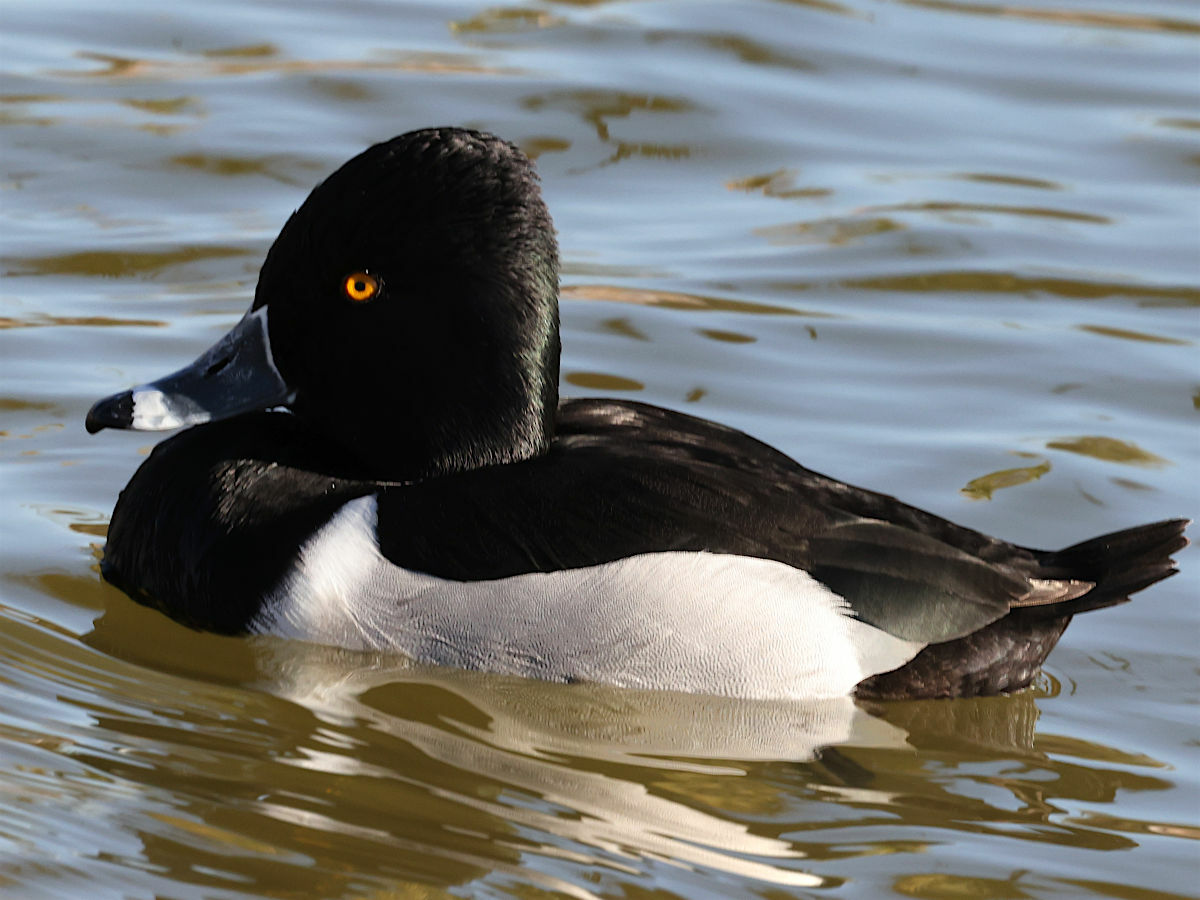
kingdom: Animalia
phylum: Chordata
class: Aves
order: Anseriformes
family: Anatidae
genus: Aythya
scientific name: Aythya collaris
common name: Ring-necked duck
